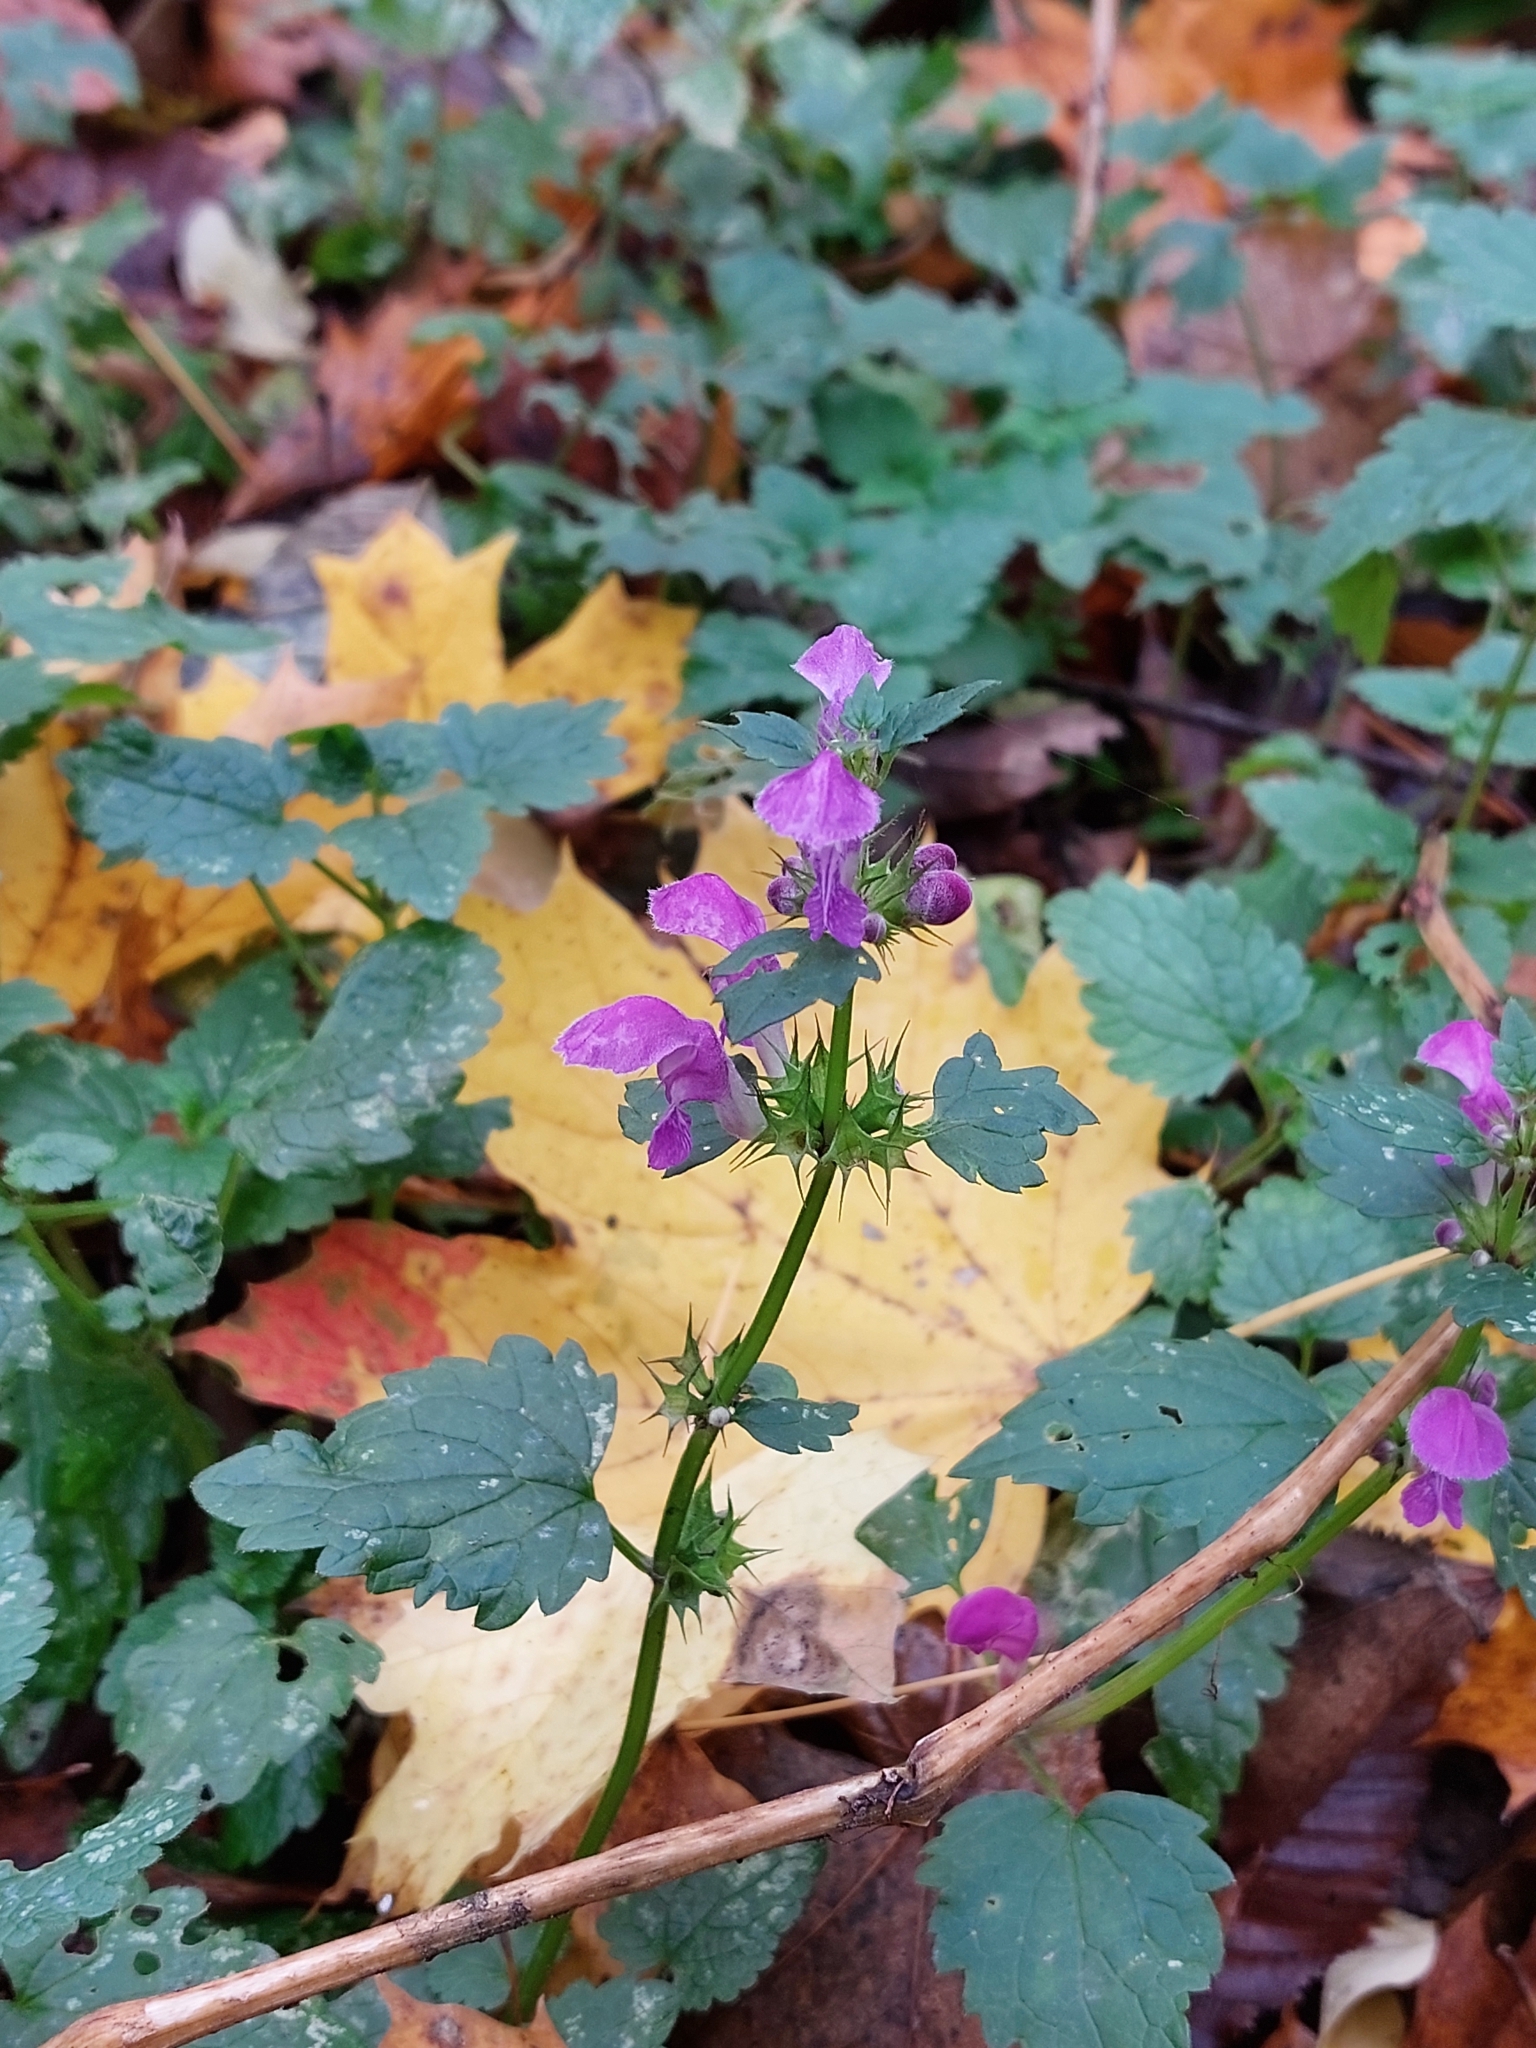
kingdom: Plantae
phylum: Tracheophyta
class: Magnoliopsida
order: Lamiales
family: Lamiaceae
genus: Lamium
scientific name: Lamium maculatum
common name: Spotted dead-nettle
